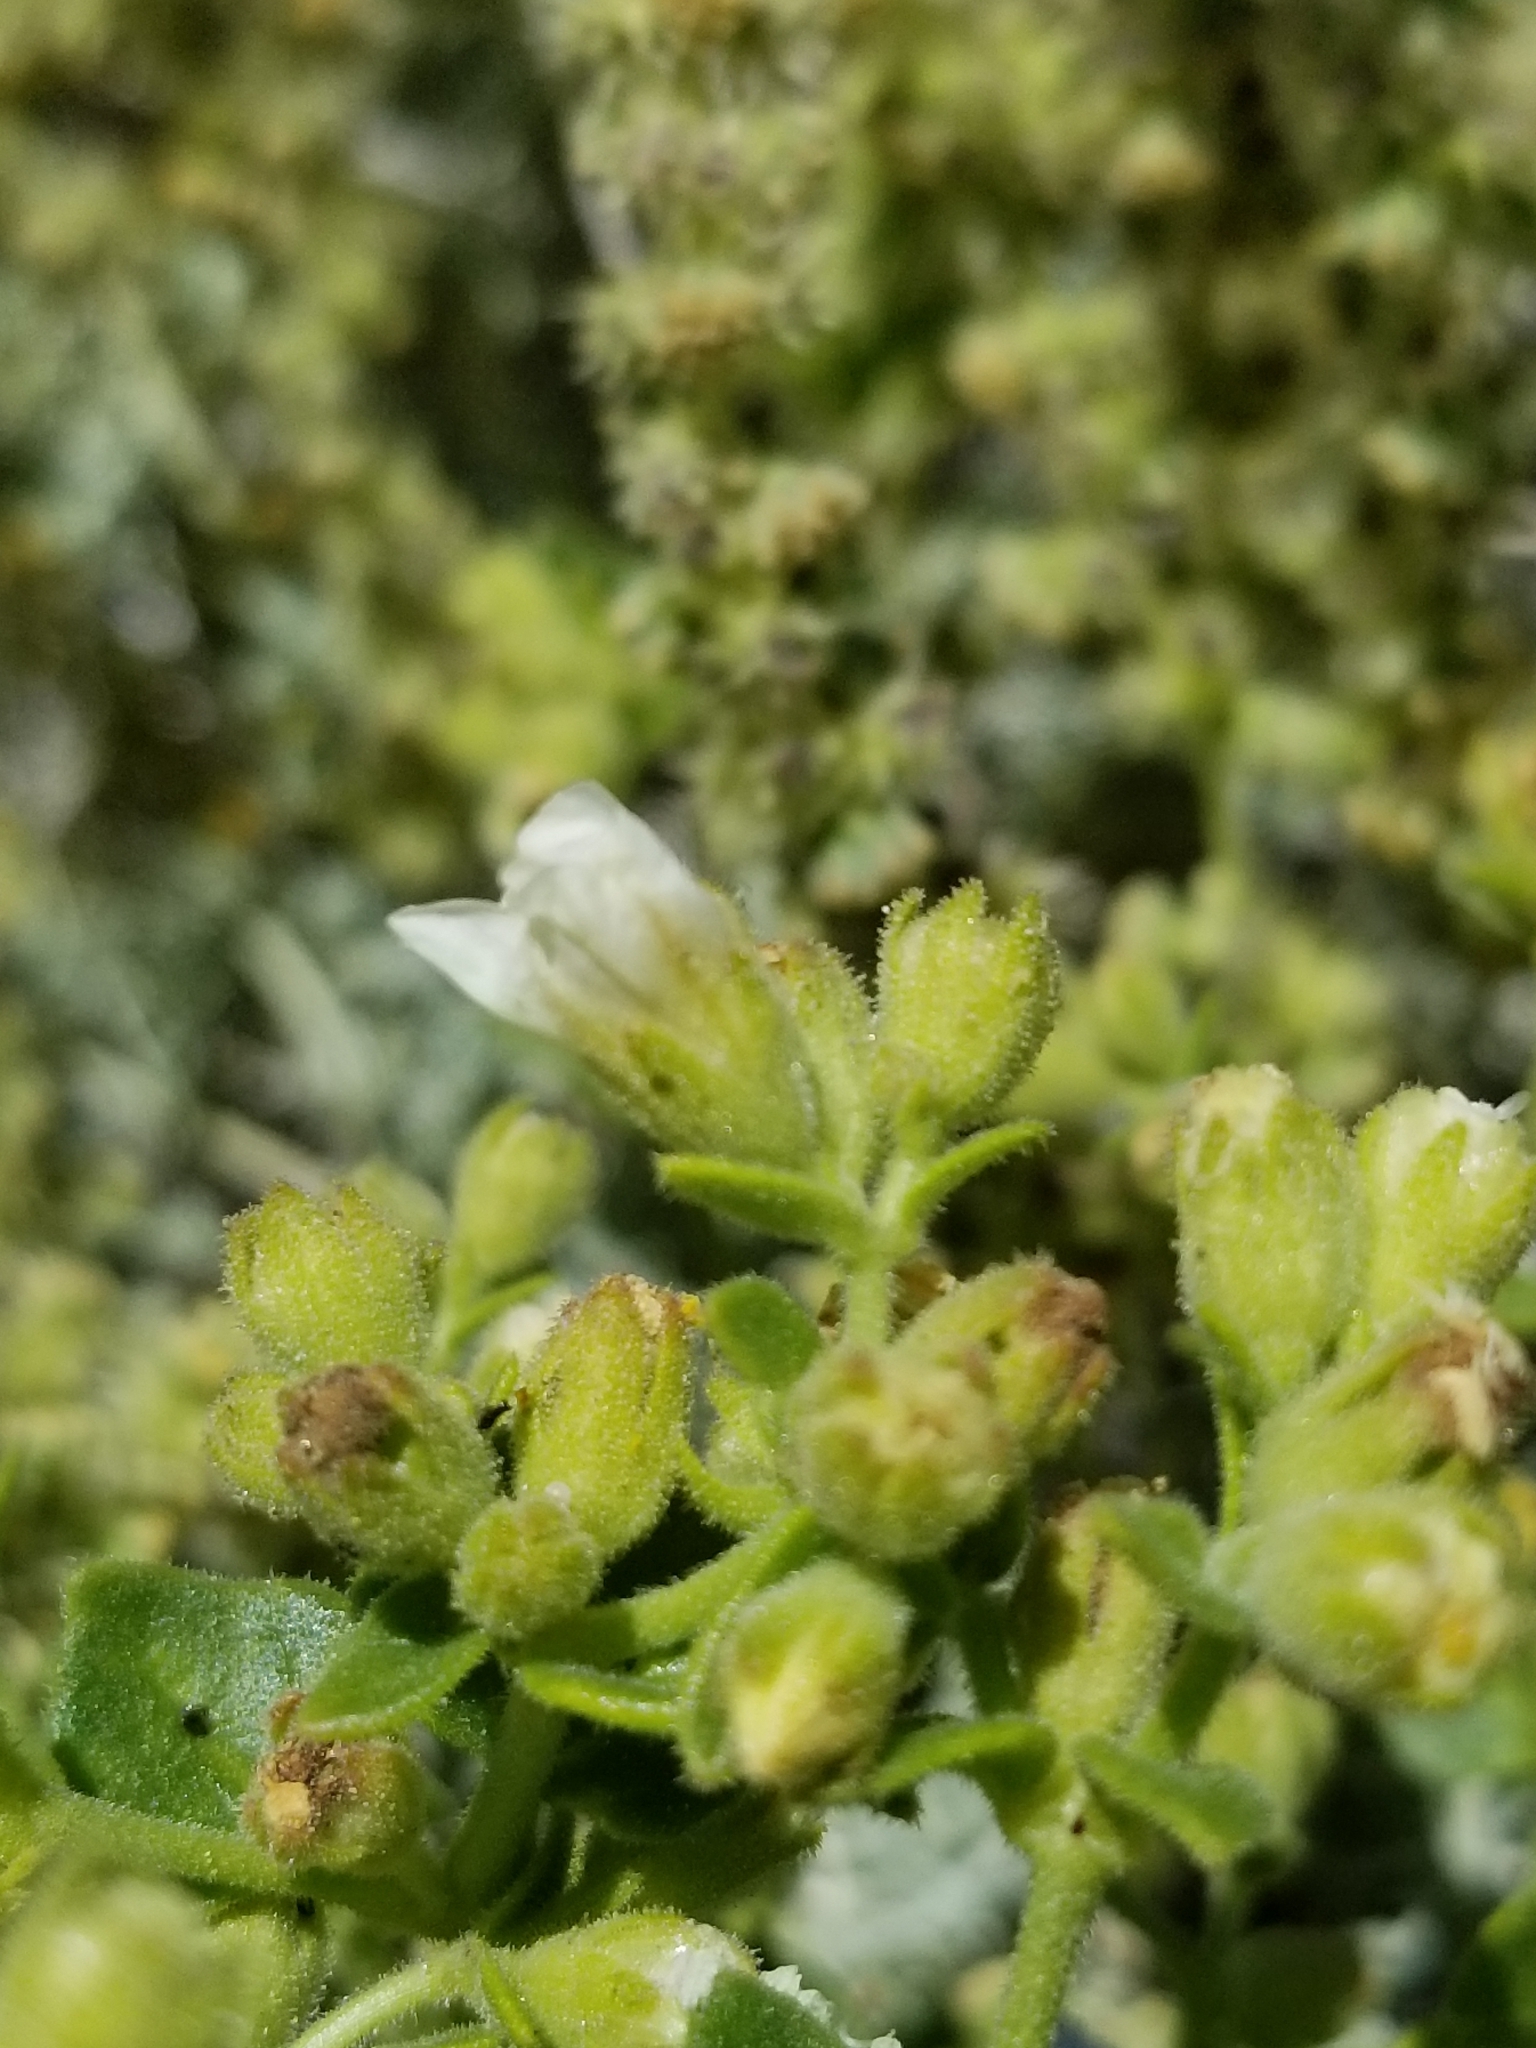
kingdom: Plantae
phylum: Tracheophyta
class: Magnoliopsida
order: Caryophyllales
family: Nyctaginaceae
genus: Mirabilis
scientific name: Mirabilis laevis
